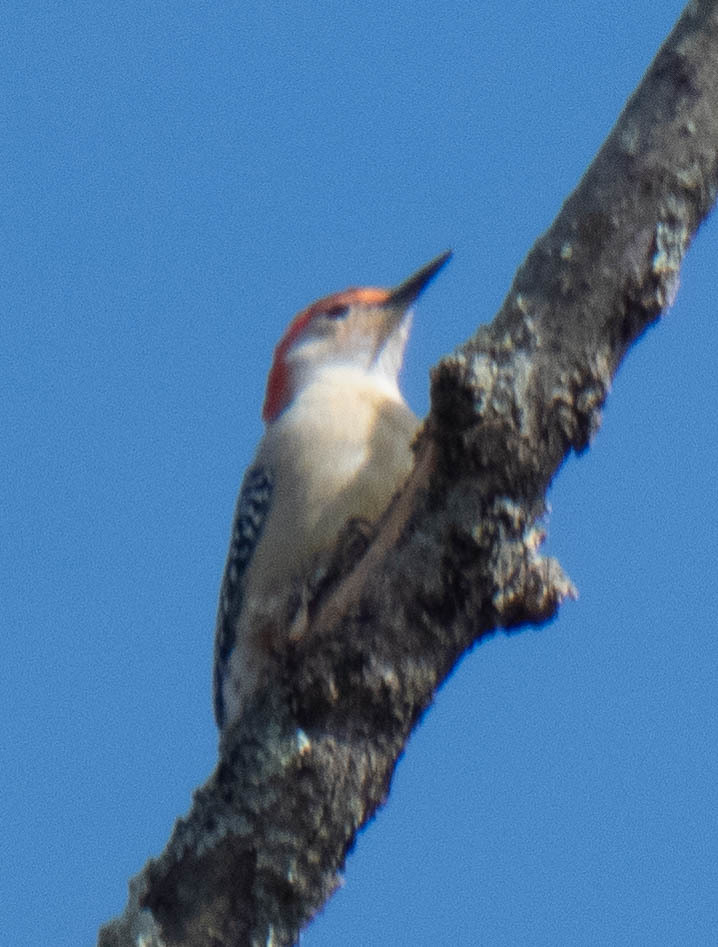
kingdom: Animalia
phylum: Chordata
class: Aves
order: Piciformes
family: Picidae
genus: Melanerpes
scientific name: Melanerpes carolinus
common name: Red-bellied woodpecker
